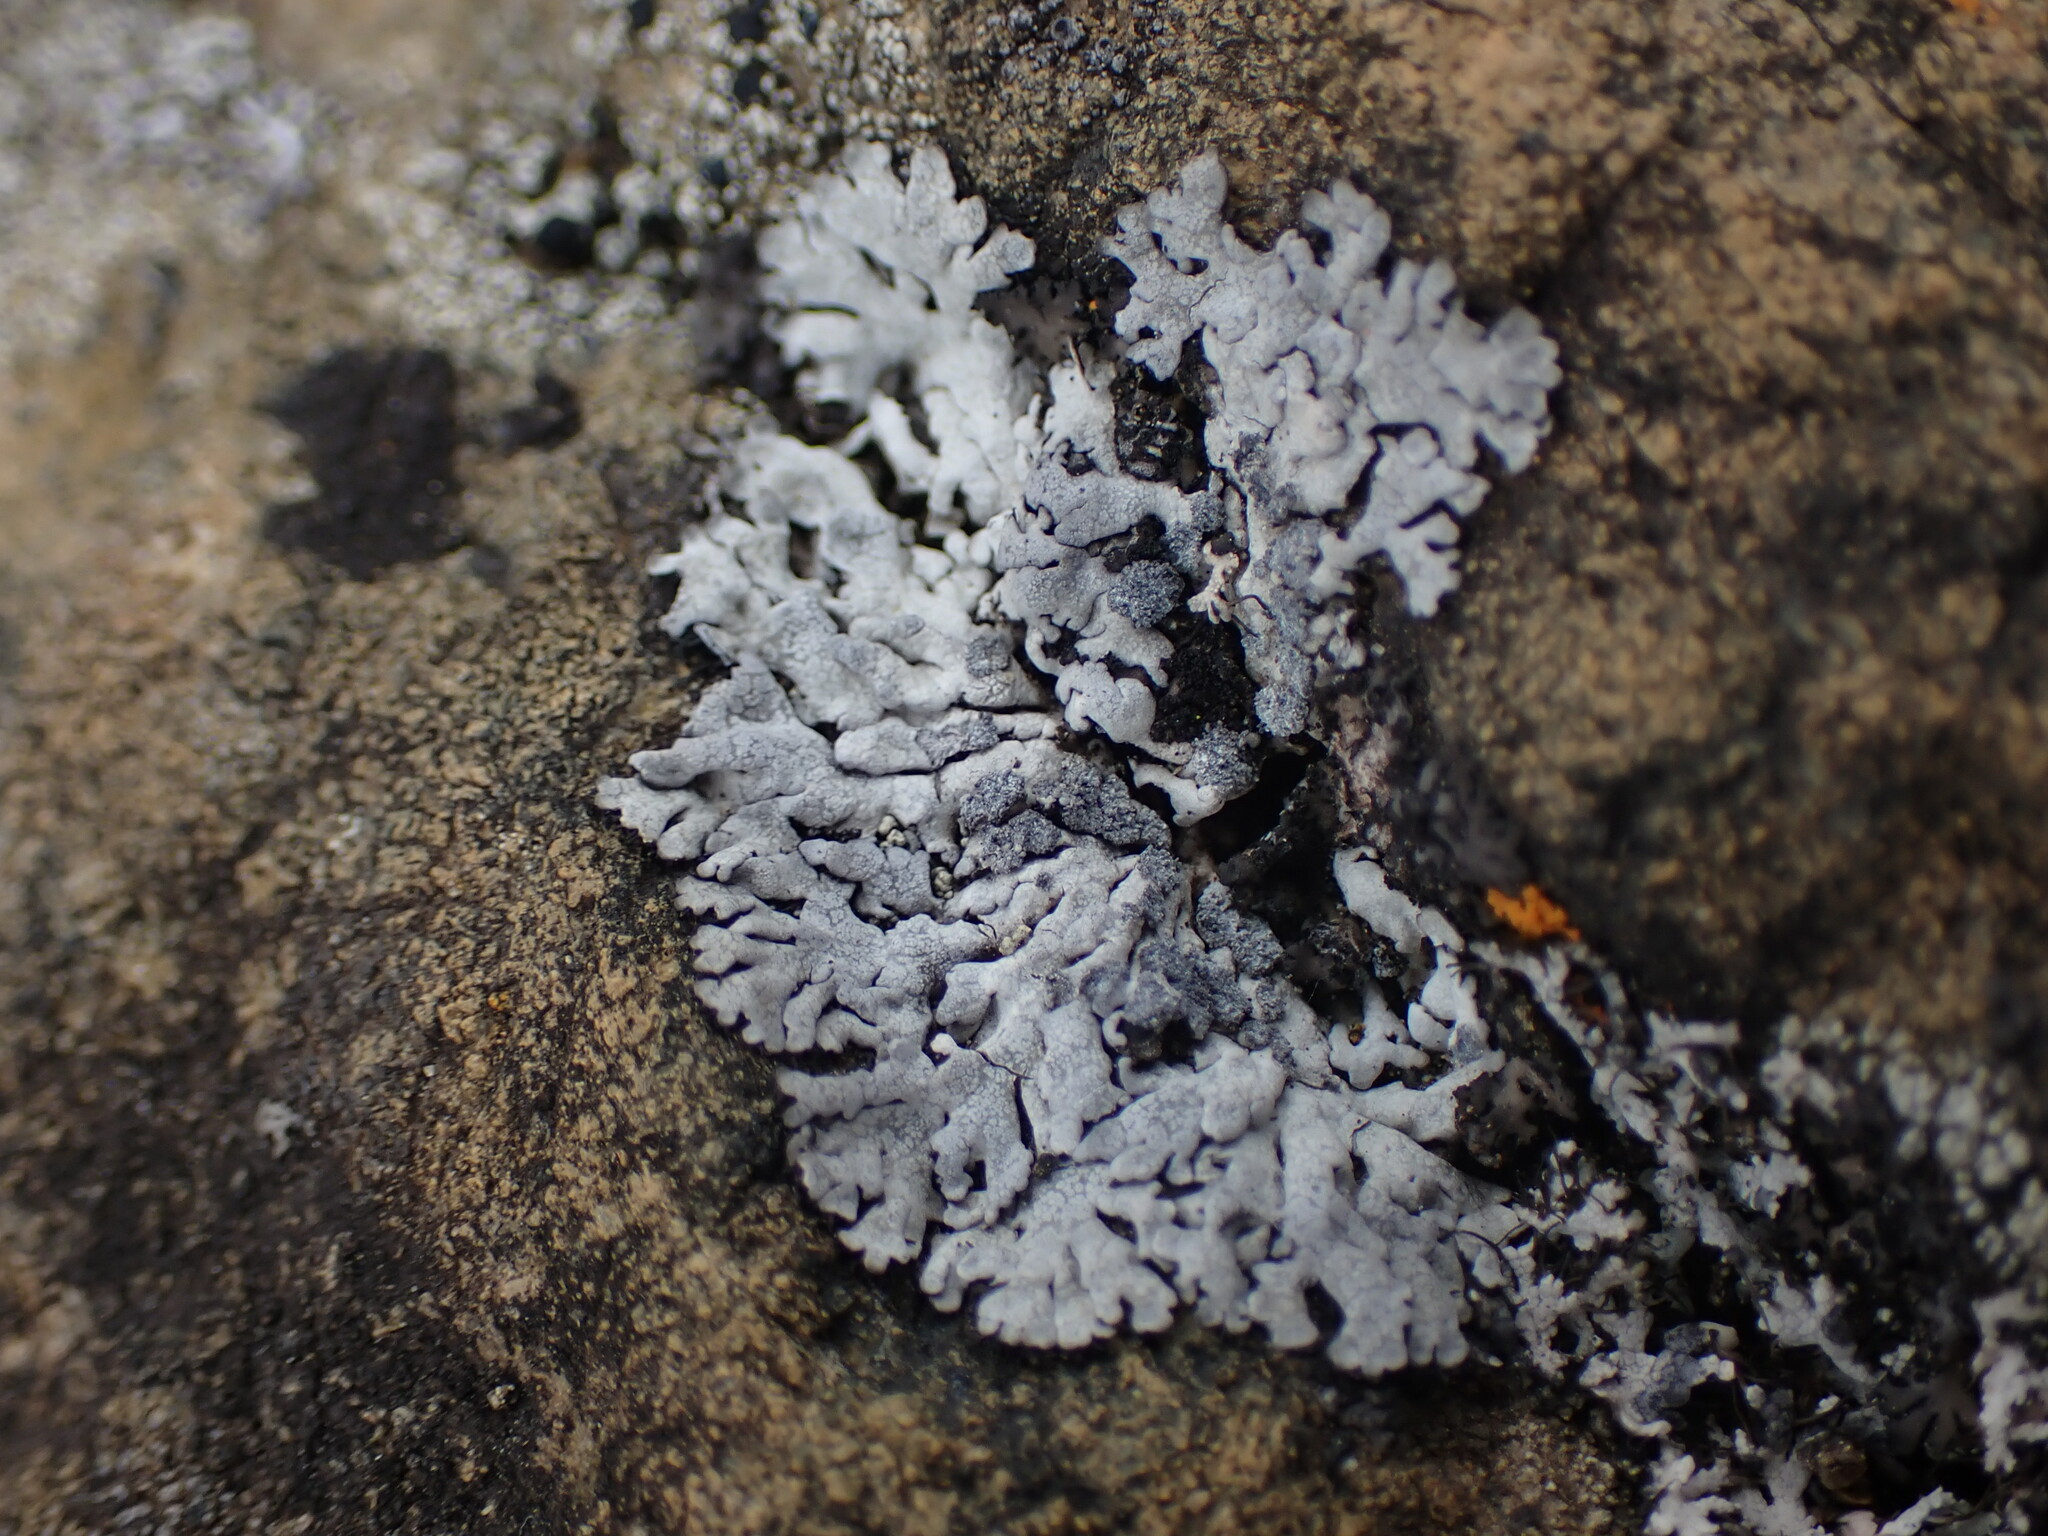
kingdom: Fungi
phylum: Ascomycota
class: Lecanoromycetes
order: Caliciales
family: Physciaceae
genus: Physcia
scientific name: Physcia caesia
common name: Blue-gray rosette lichen
